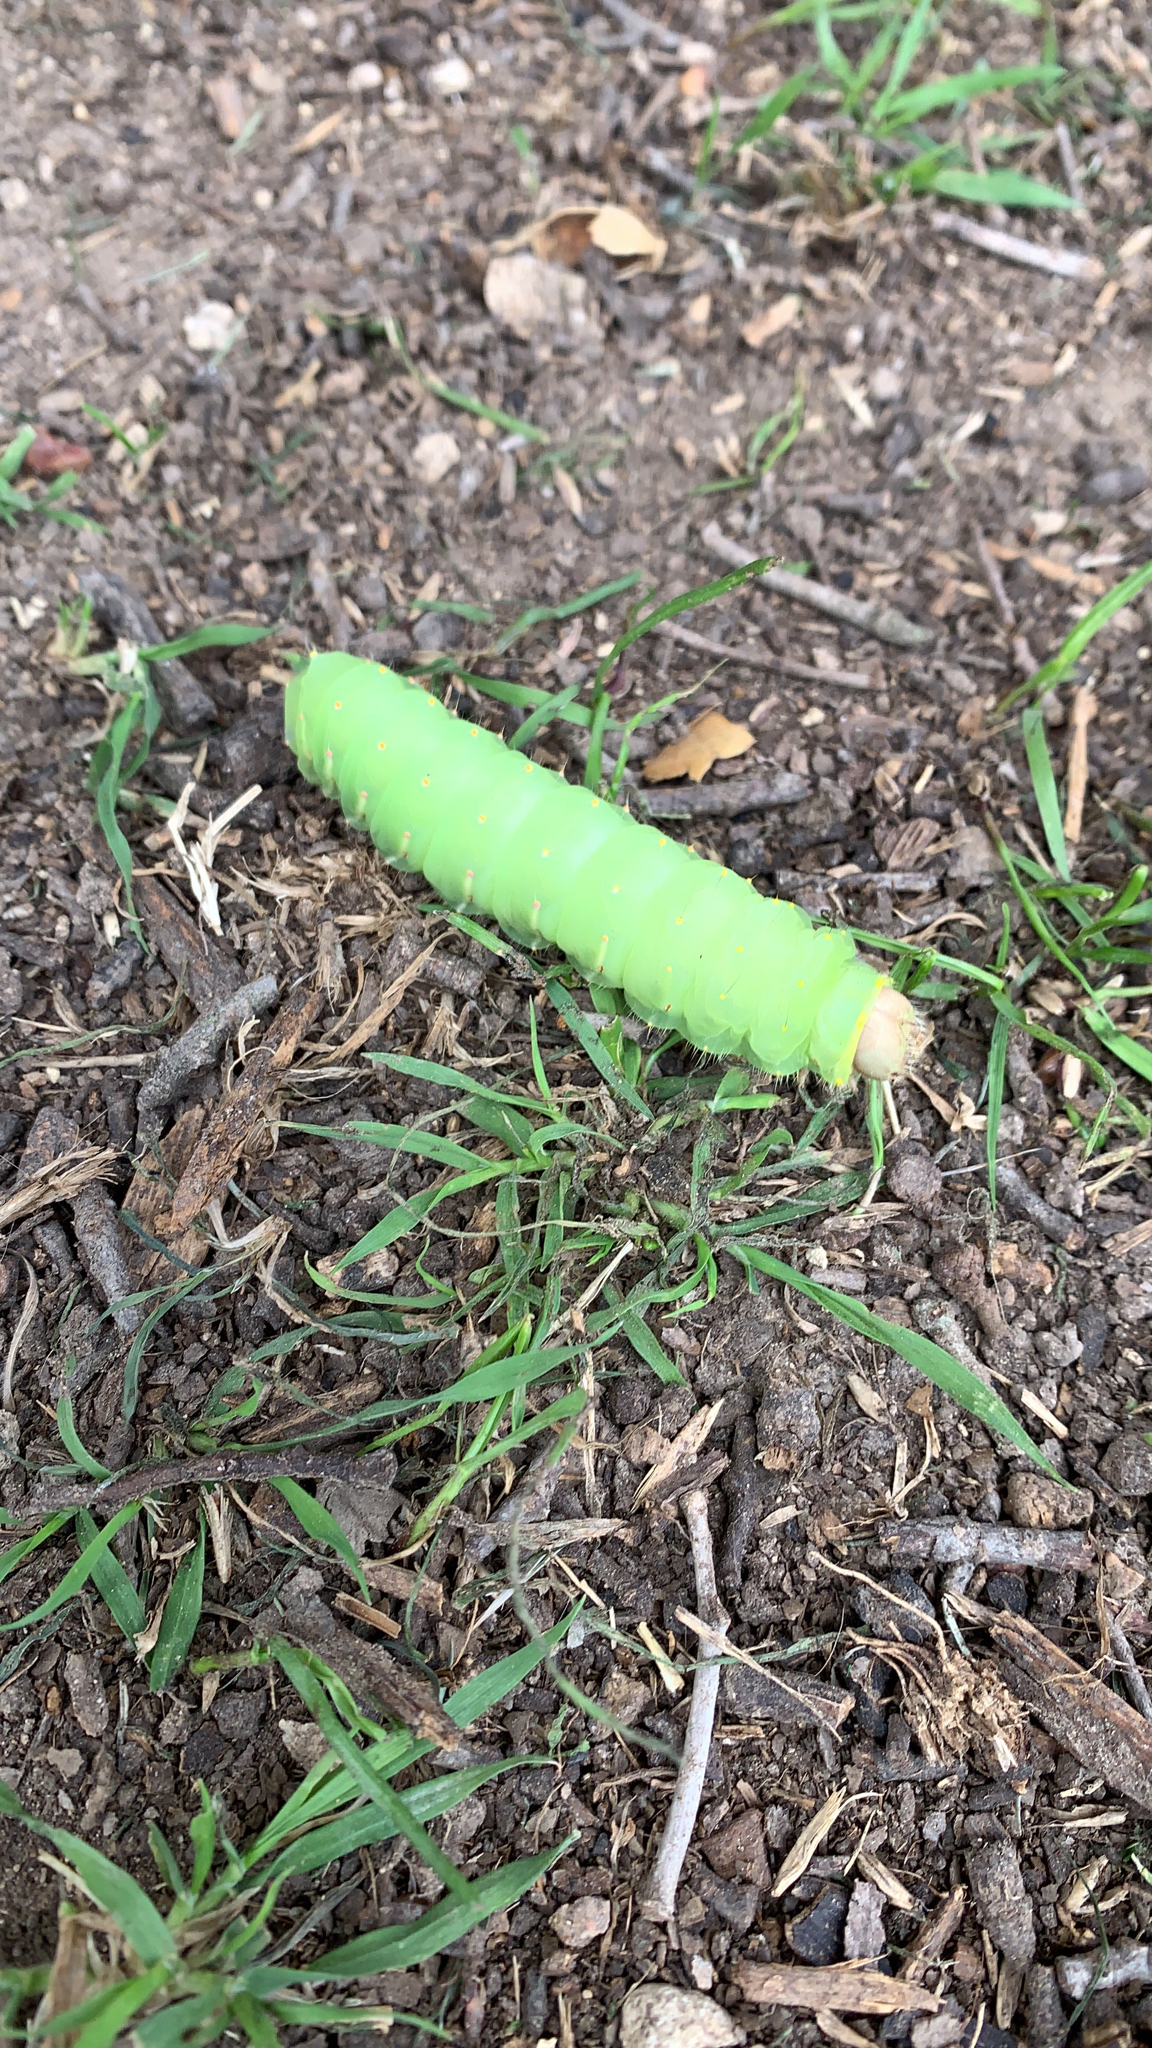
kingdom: Animalia
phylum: Arthropoda
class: Insecta
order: Lepidoptera
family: Saturniidae
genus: Antheraea
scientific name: Antheraea polyphemus
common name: Polyphemus moth
